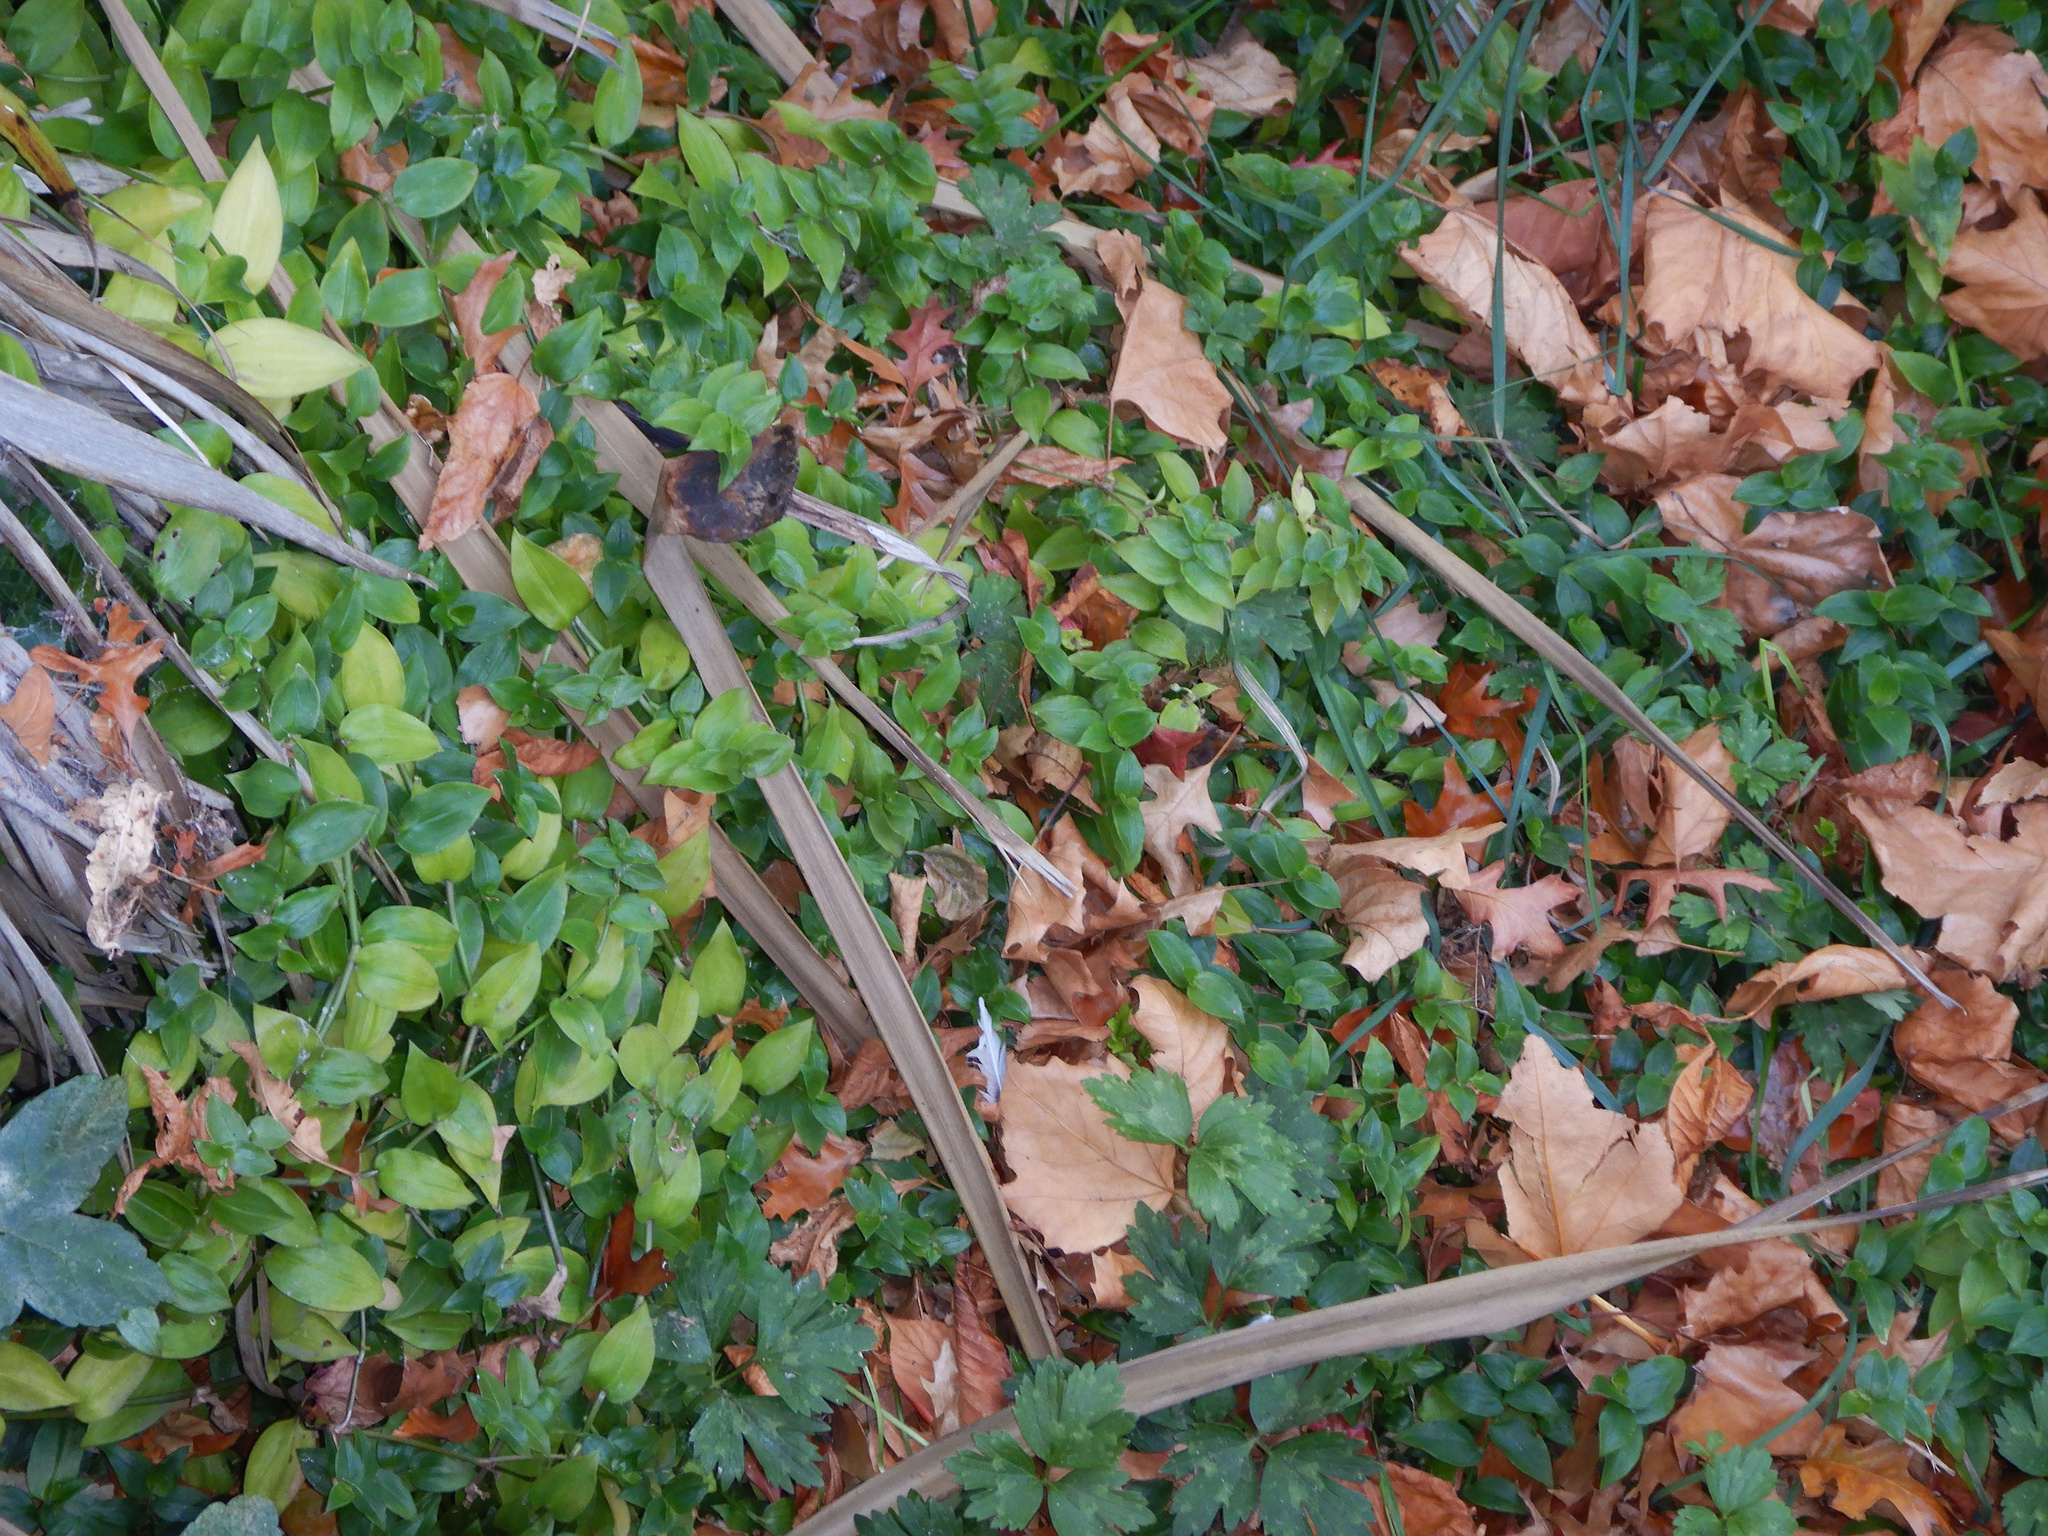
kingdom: Plantae
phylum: Tracheophyta
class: Liliopsida
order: Commelinales
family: Commelinaceae
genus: Tradescantia
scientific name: Tradescantia fluminensis
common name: Wandering-jew
